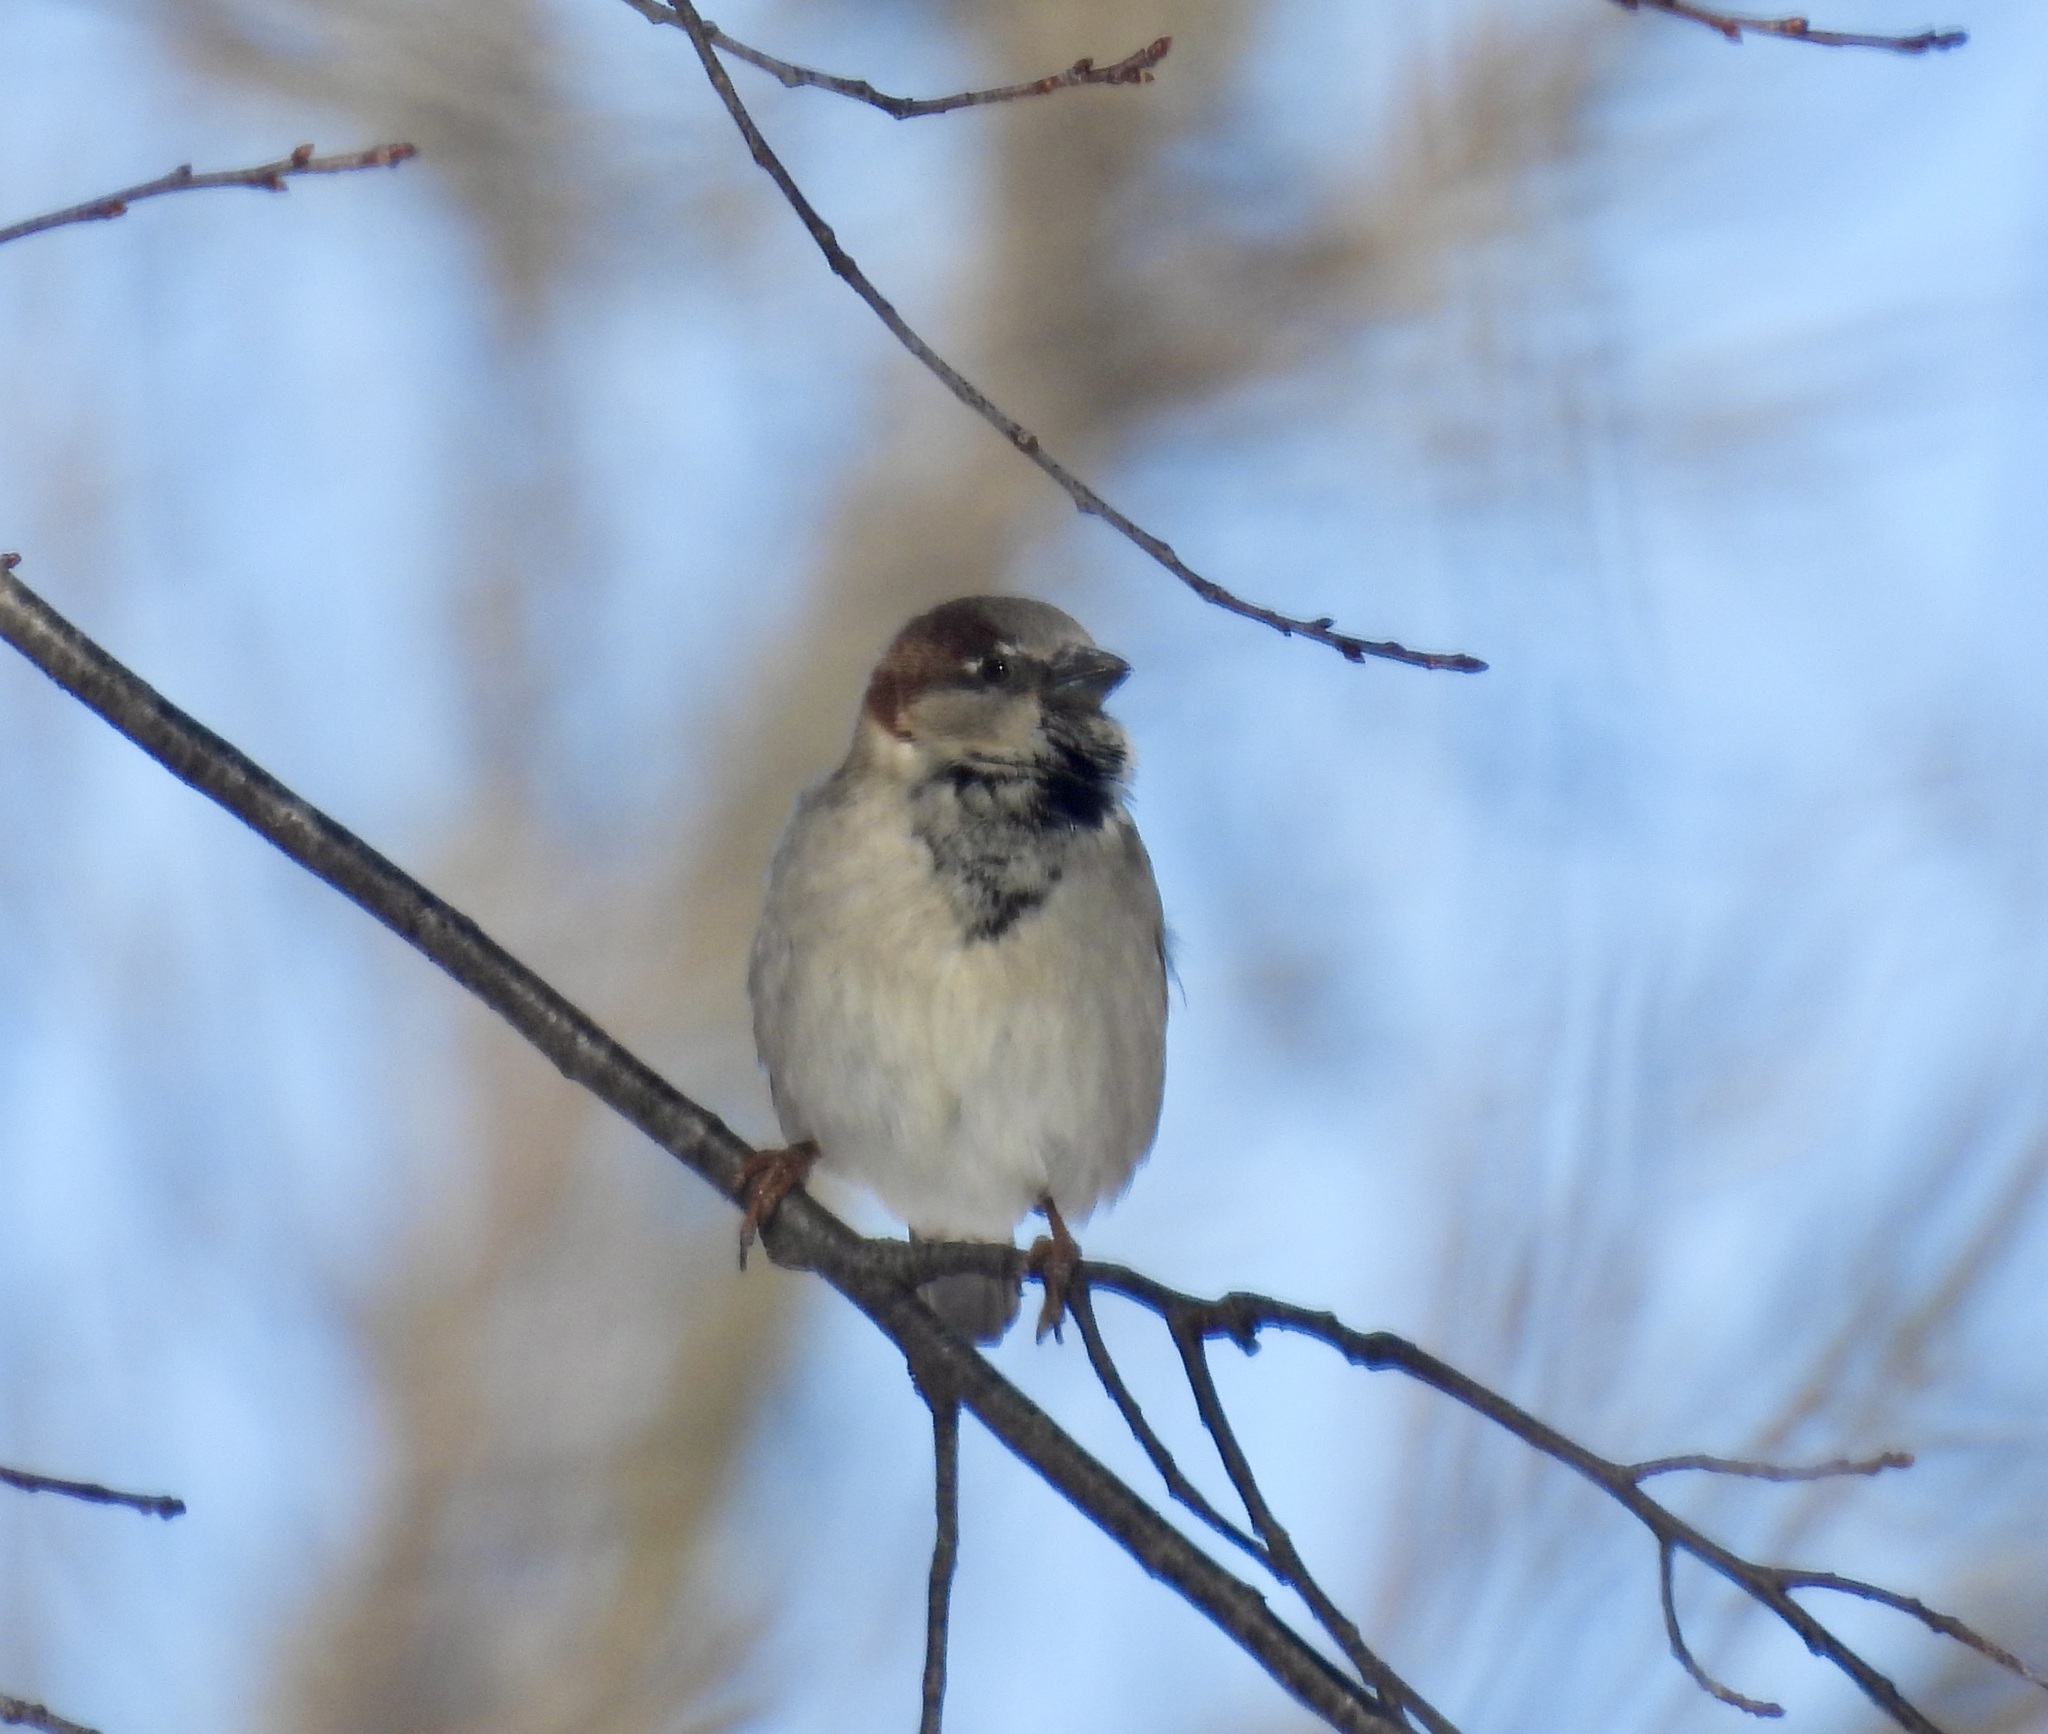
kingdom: Animalia
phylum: Chordata
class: Aves
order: Passeriformes
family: Passeridae
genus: Passer
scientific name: Passer domesticus
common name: House sparrow
